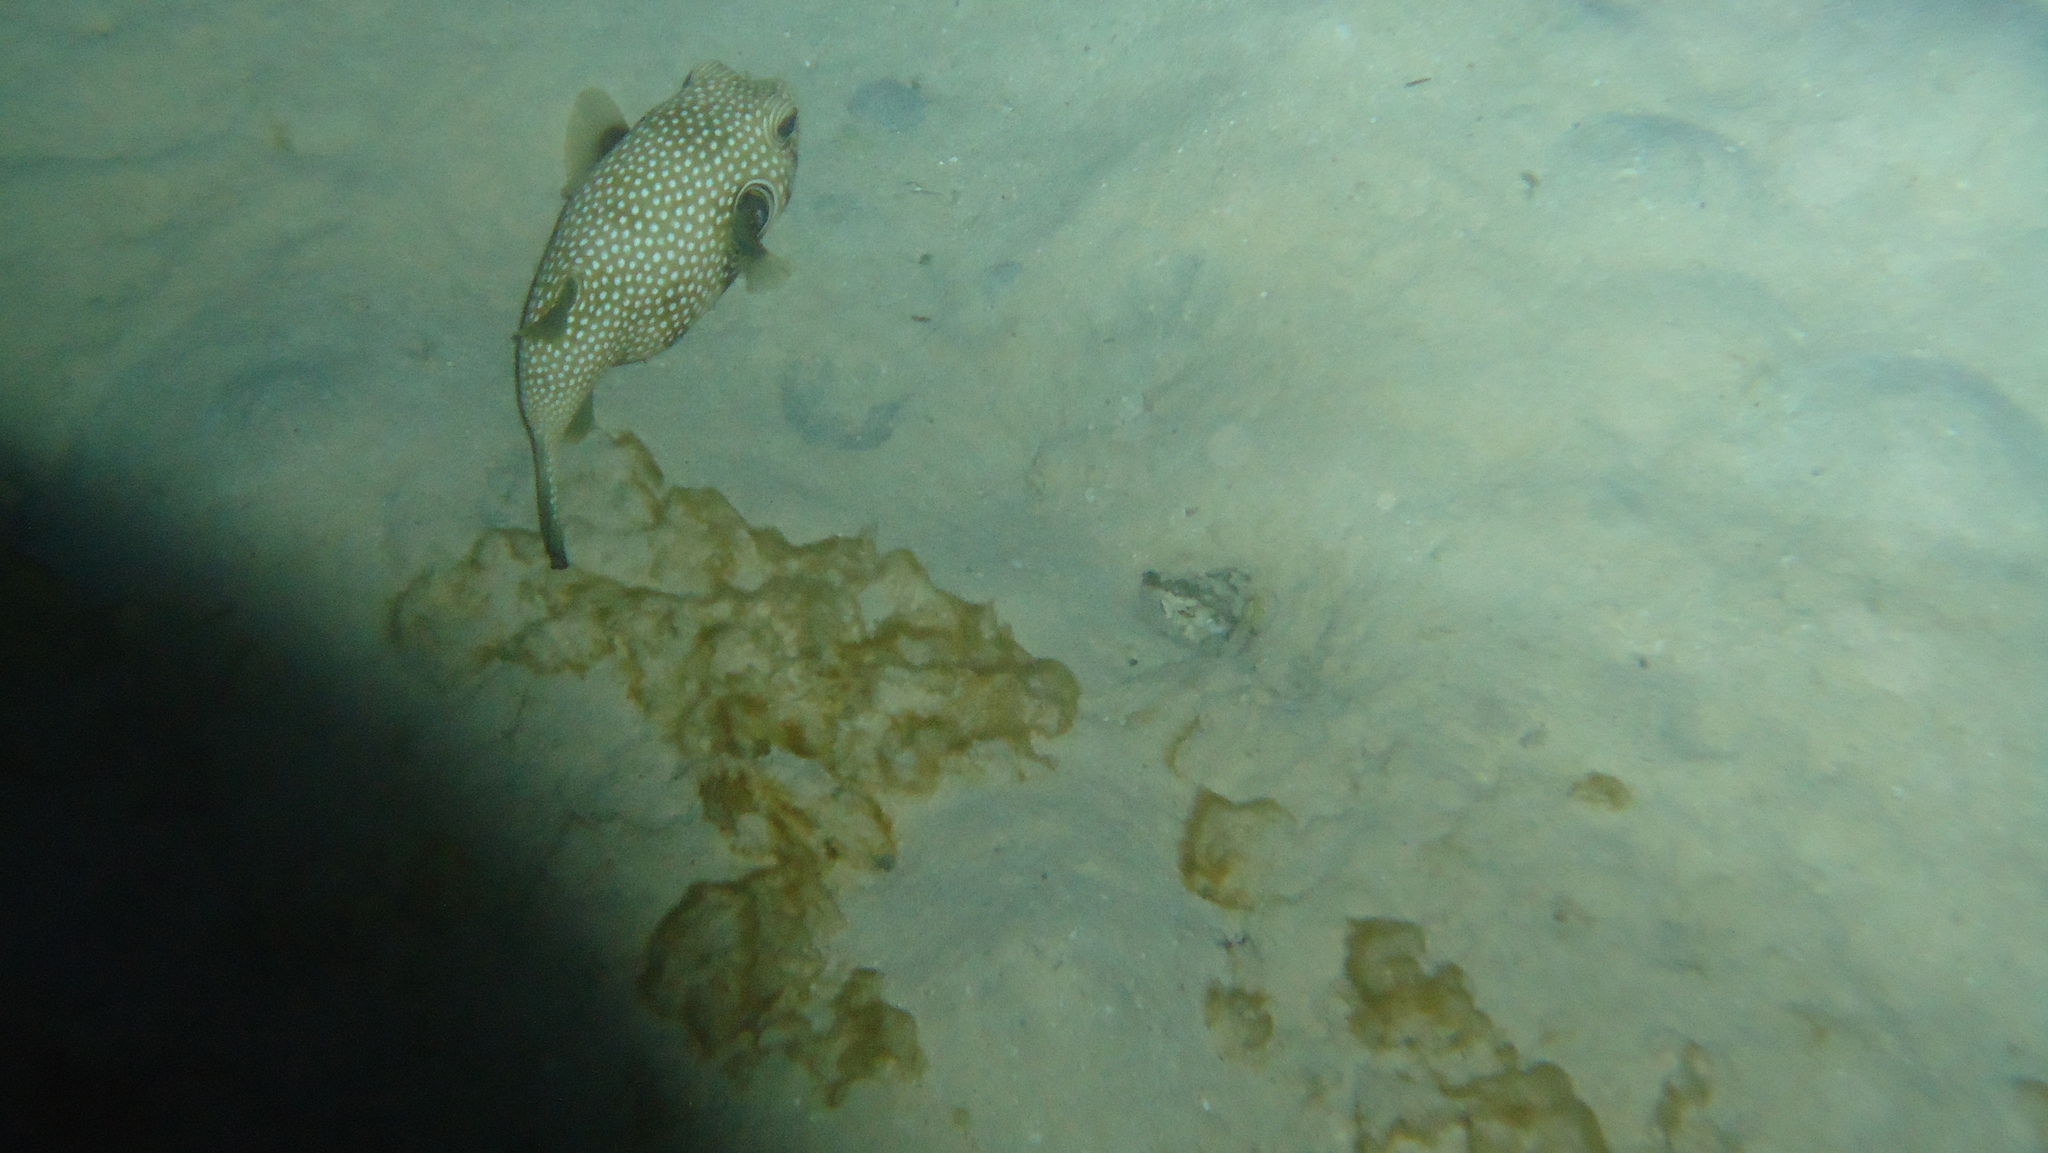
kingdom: Animalia
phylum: Chordata
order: Tetraodontiformes
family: Tetraodontidae
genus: Arothron
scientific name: Arothron hispidus
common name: Stripebelly puffer
